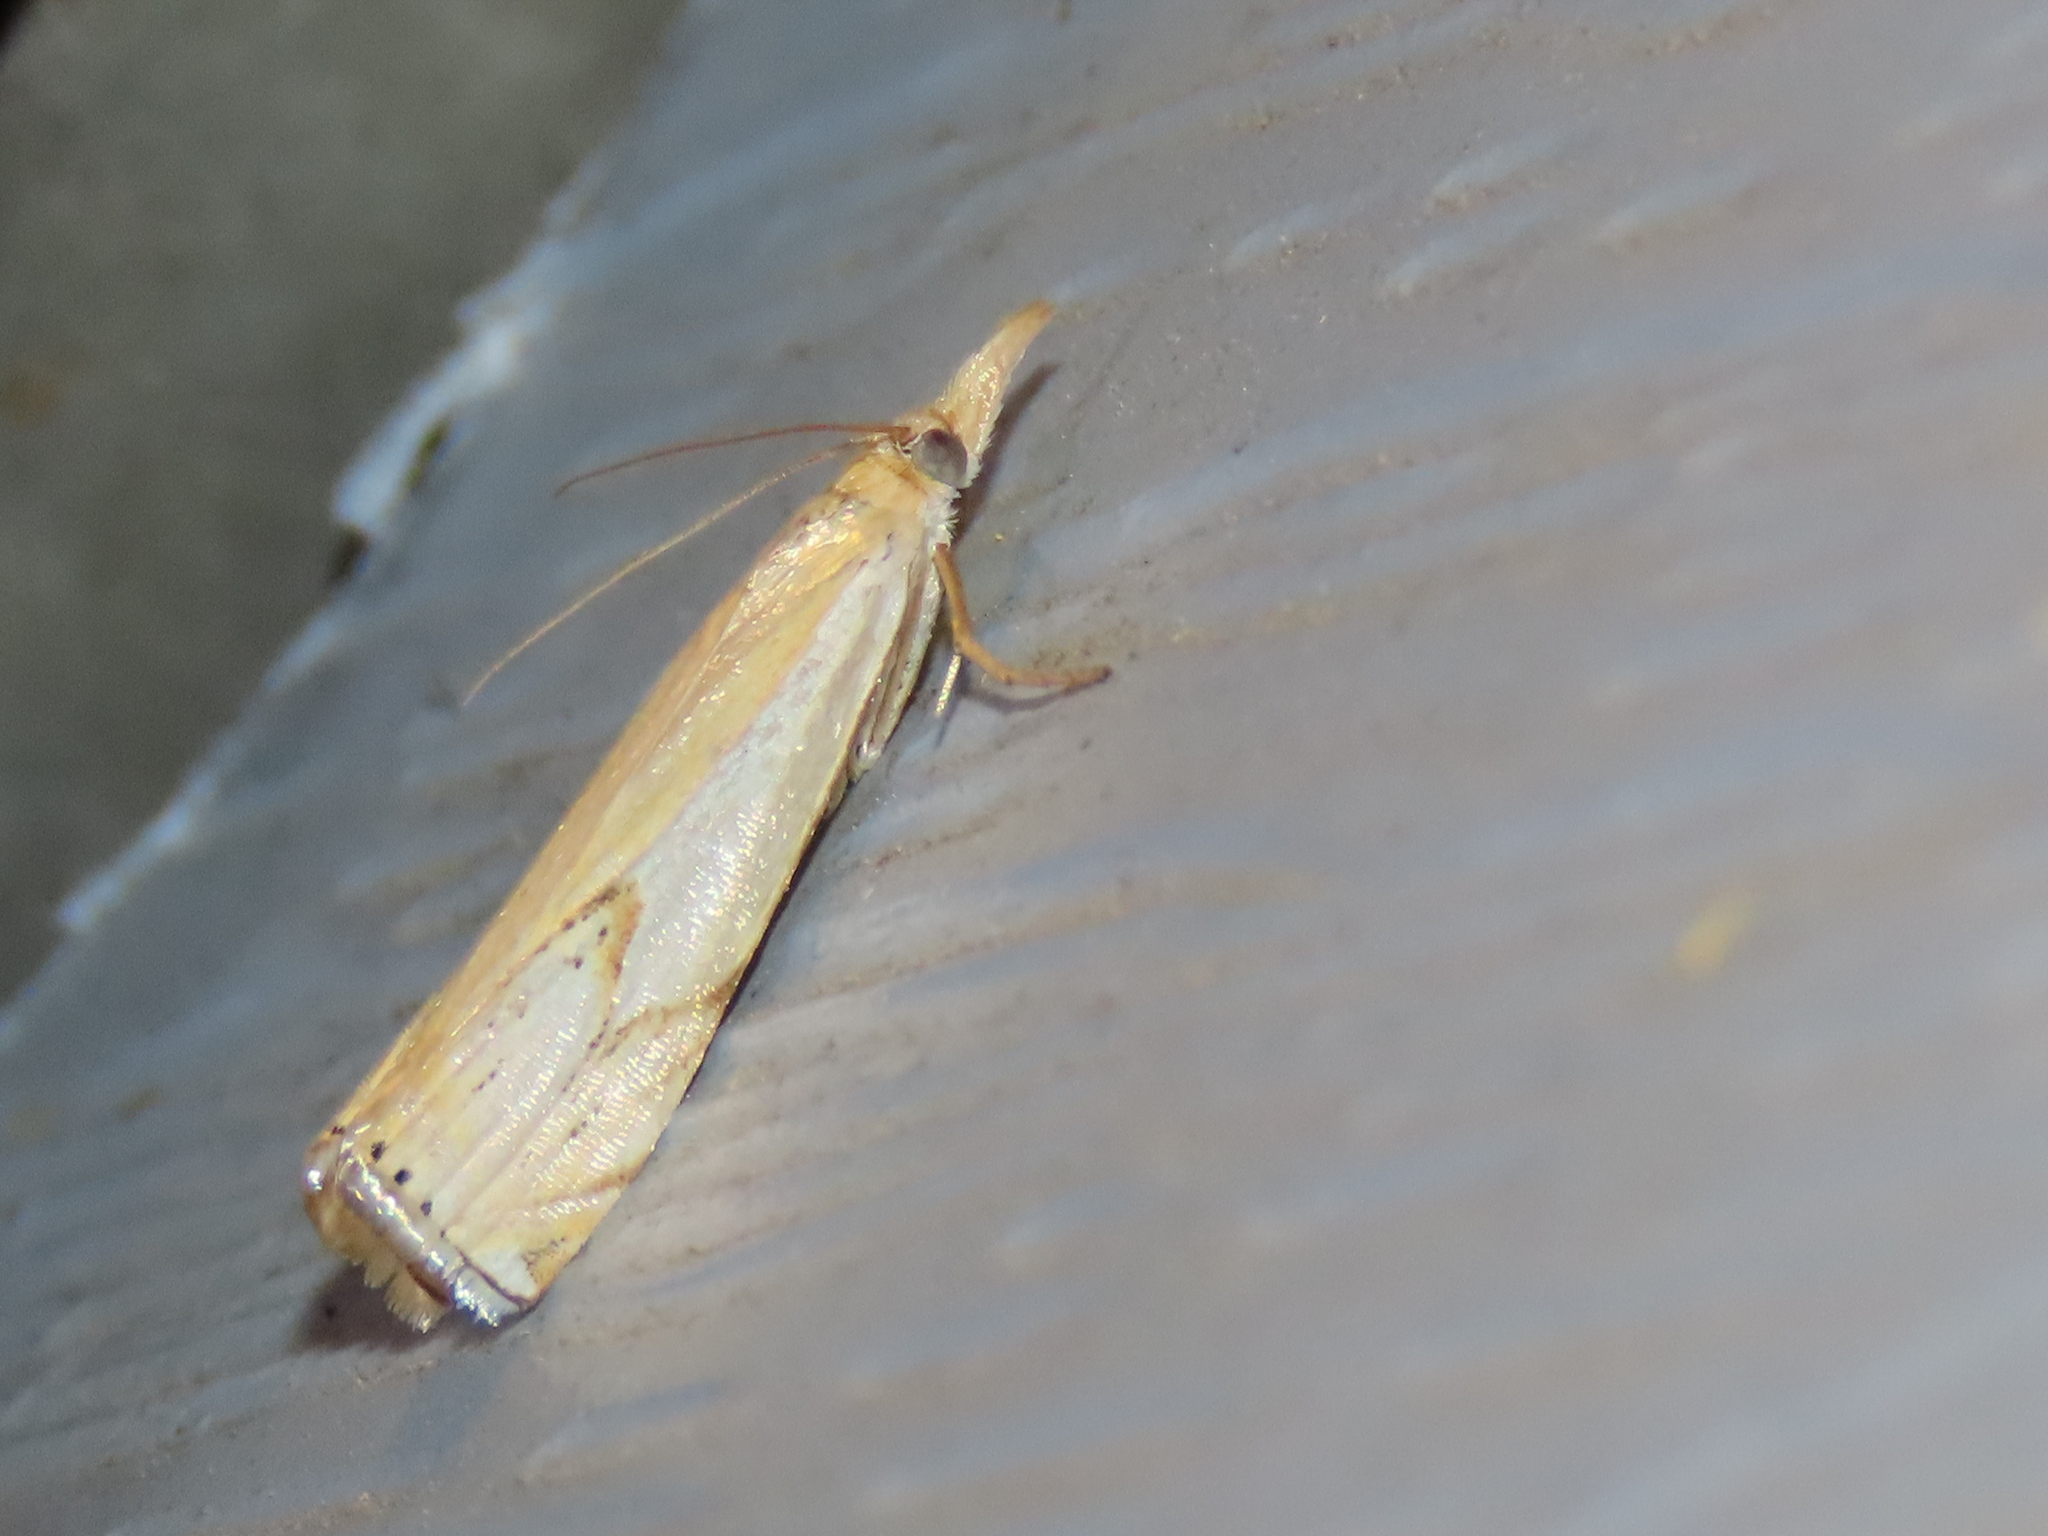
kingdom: Animalia
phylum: Arthropoda
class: Insecta
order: Lepidoptera
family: Crambidae
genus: Crambus
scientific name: Crambus agitatellus
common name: Double-banded grass-veneer
